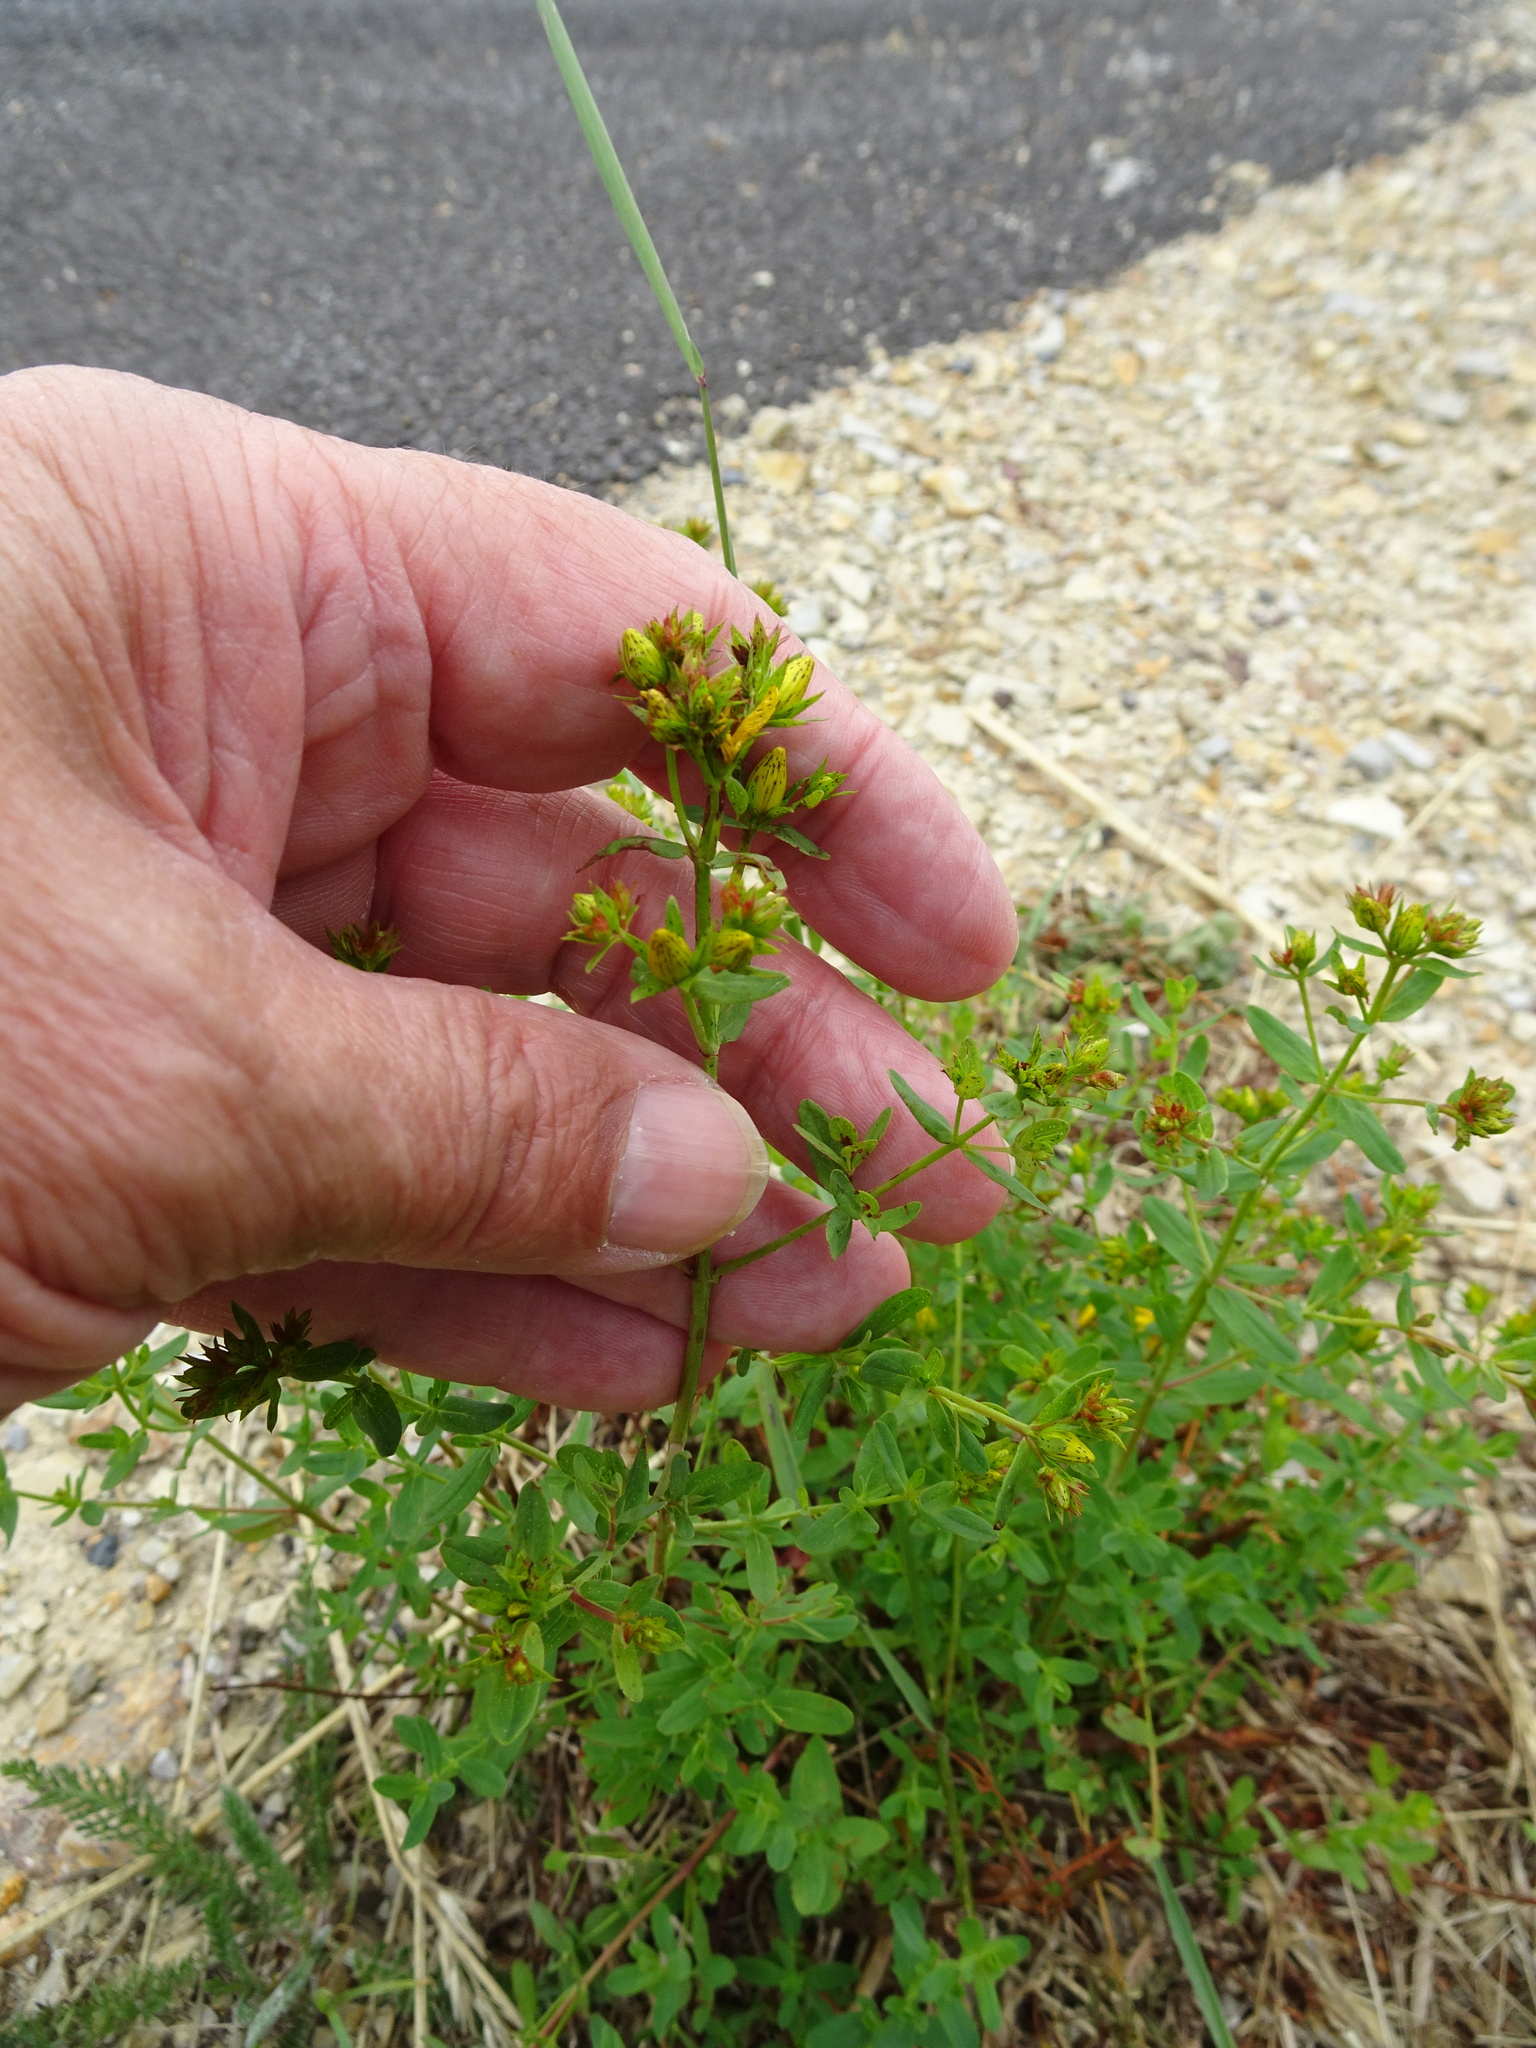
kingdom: Plantae
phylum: Tracheophyta
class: Magnoliopsida
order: Malpighiales
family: Hypericaceae
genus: Hypericum
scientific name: Hypericum perforatum
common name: Common st. johnswort
